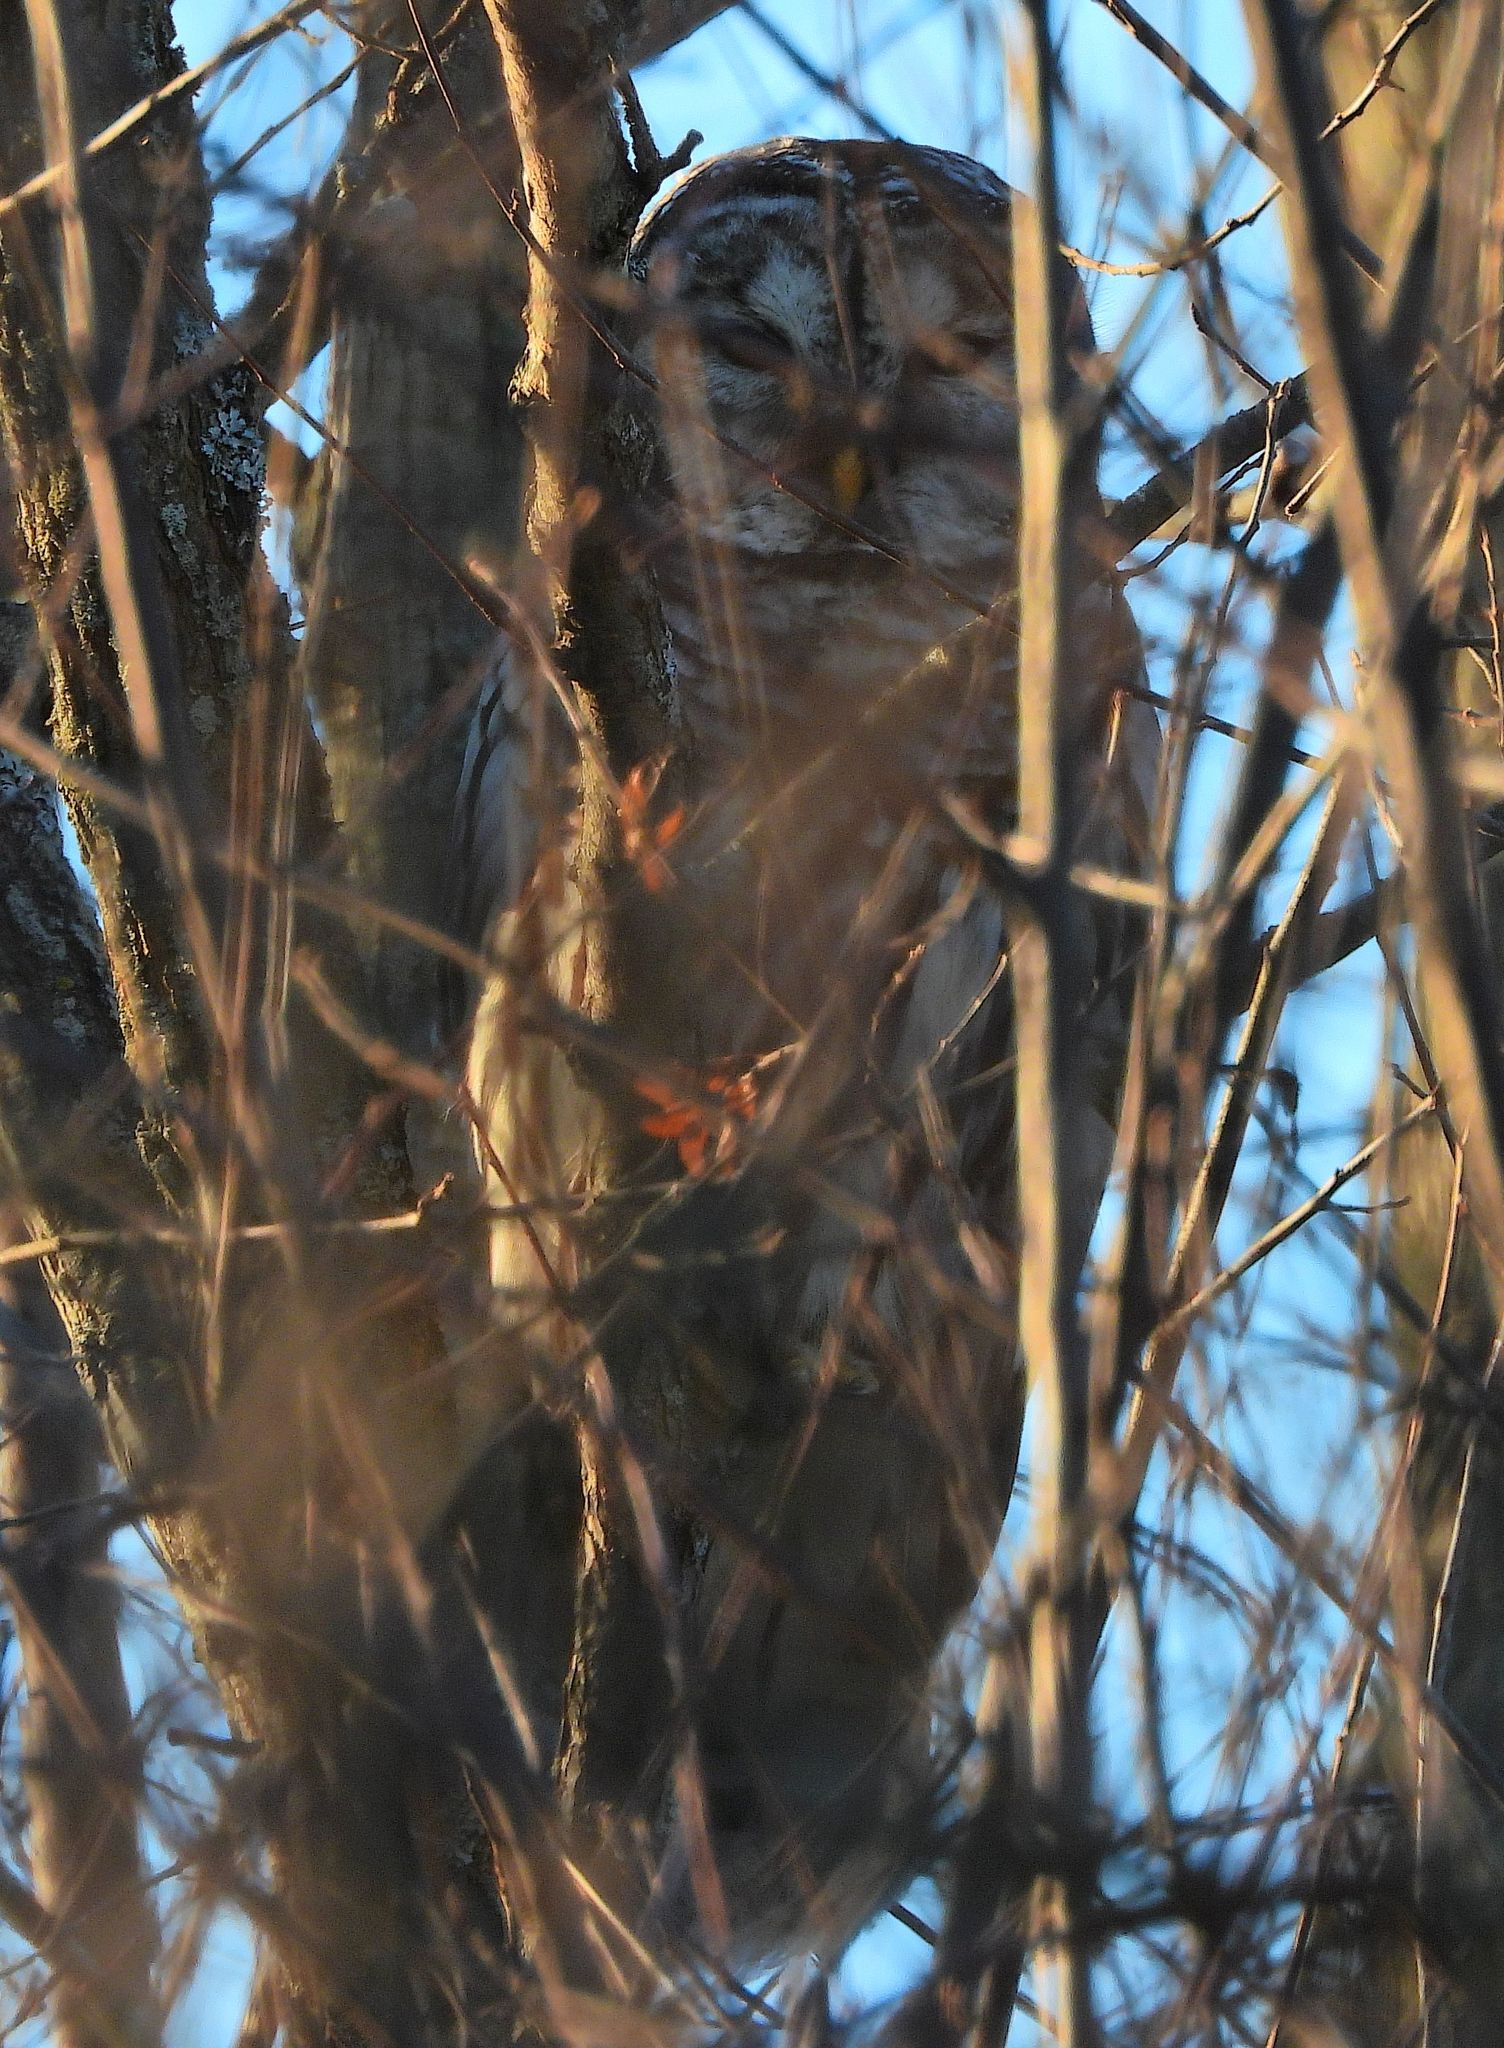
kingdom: Animalia
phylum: Chordata
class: Aves
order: Strigiformes
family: Strigidae
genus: Strix
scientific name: Strix varia
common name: Barred owl
